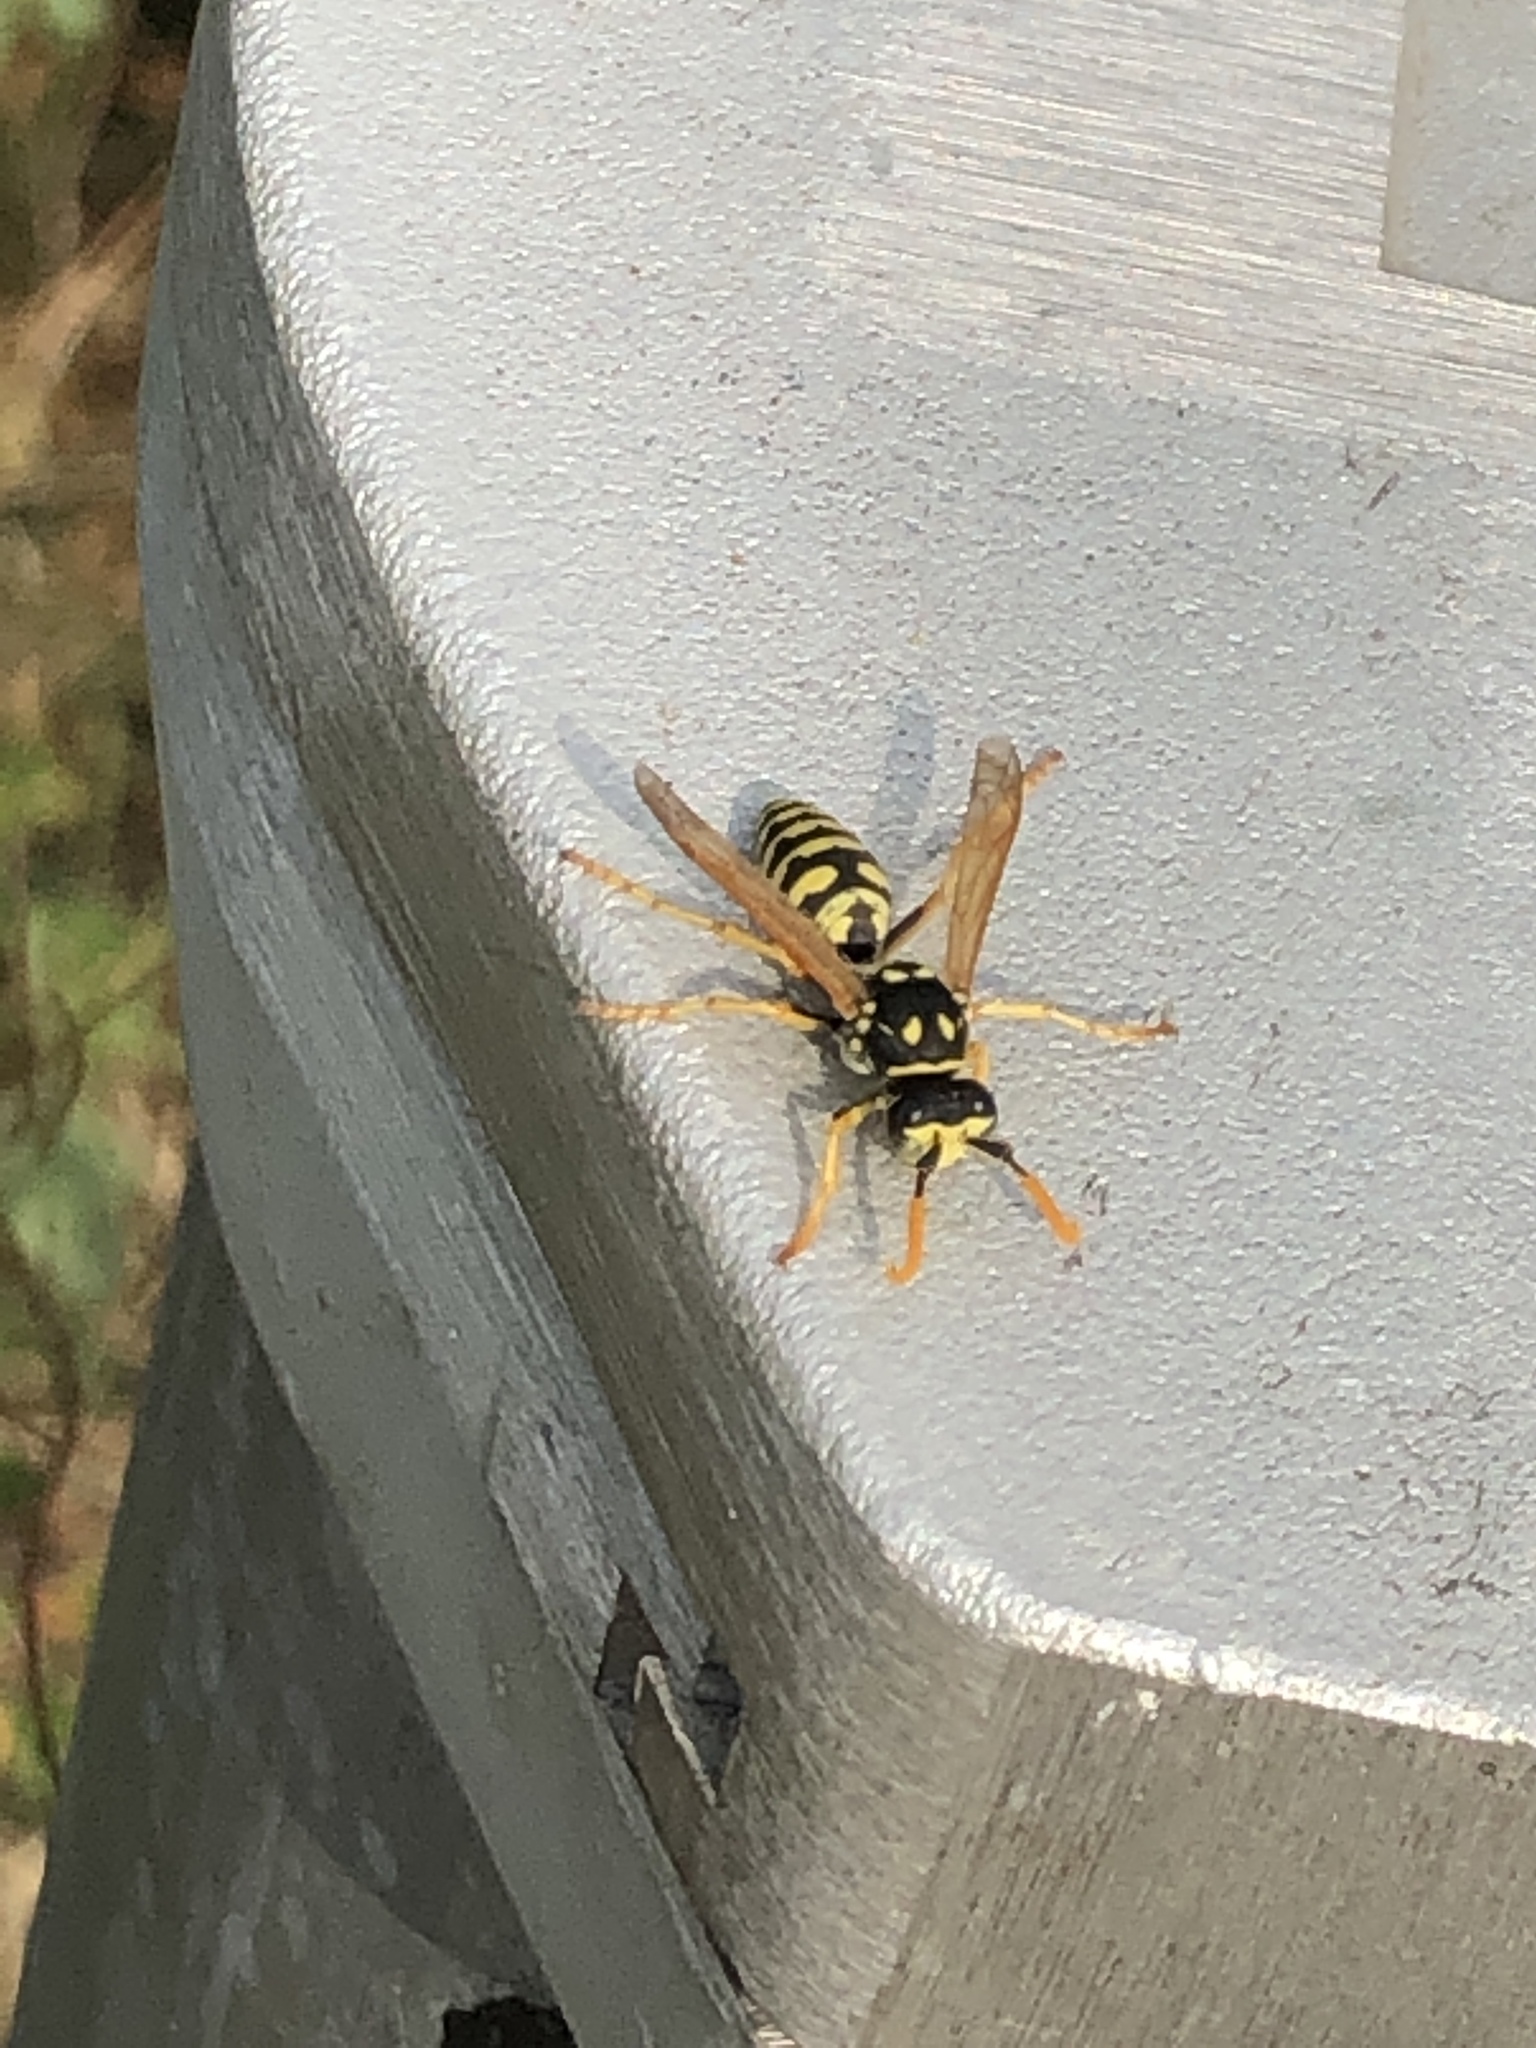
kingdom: Animalia
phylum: Arthropoda
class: Insecta
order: Hymenoptera
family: Eumenidae
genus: Polistes
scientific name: Polistes dominula
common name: Paper wasp
